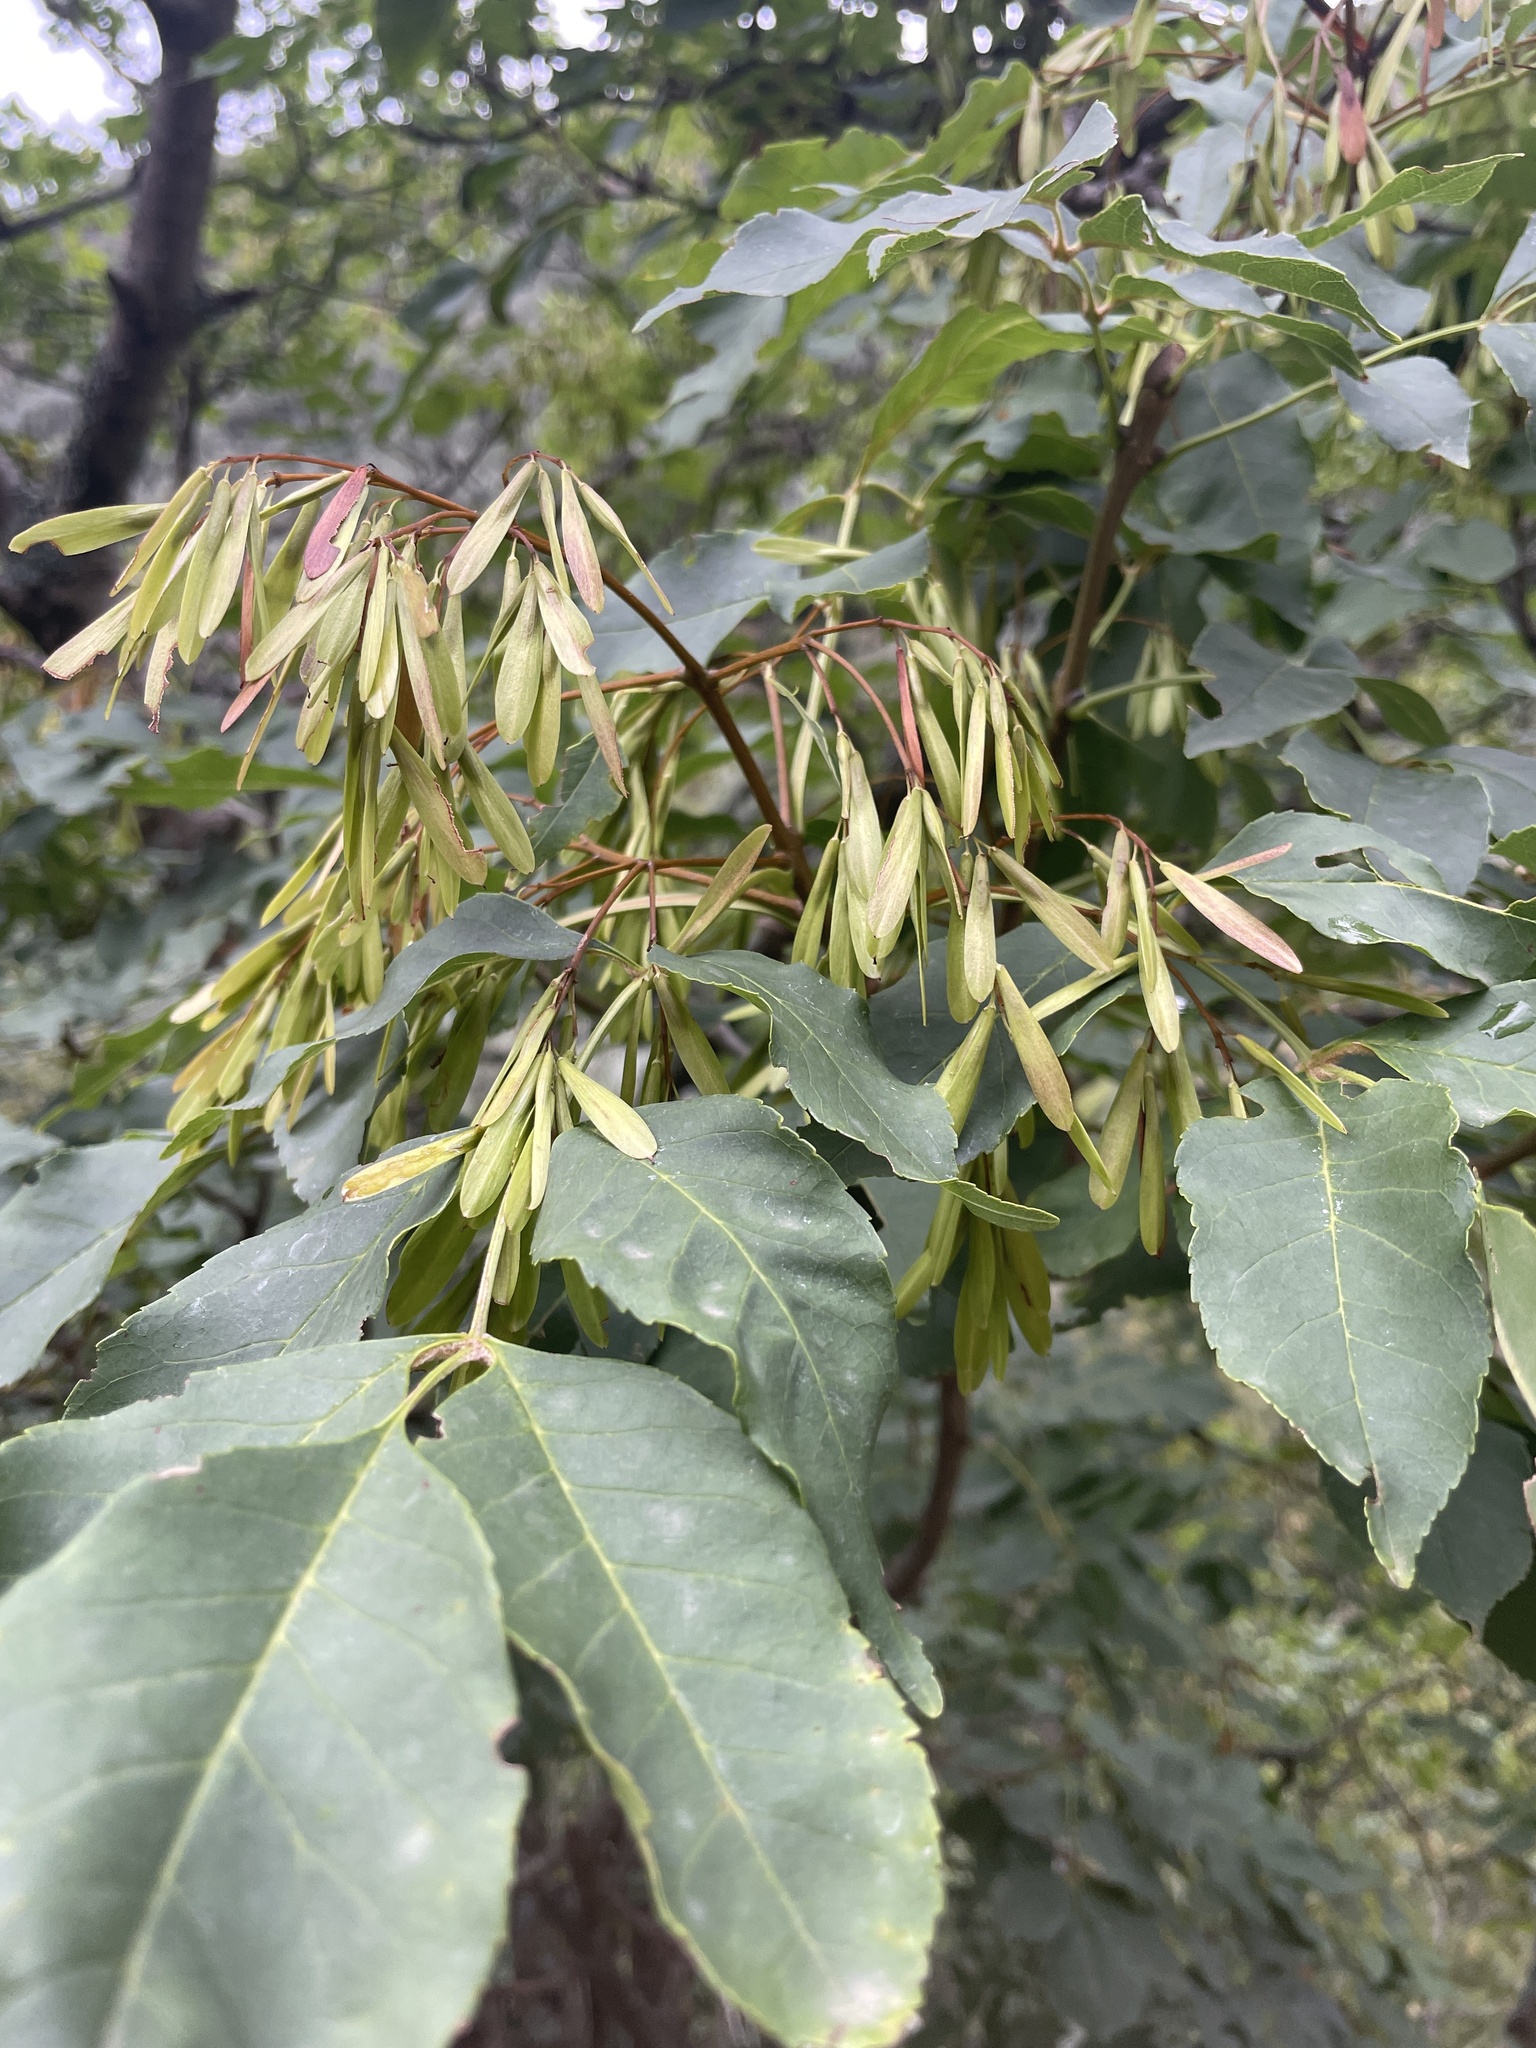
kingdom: Plantae
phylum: Tracheophyta
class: Magnoliopsida
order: Lamiales
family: Oleaceae
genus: Fraxinus
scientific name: Fraxinus ornus
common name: Manna ash
